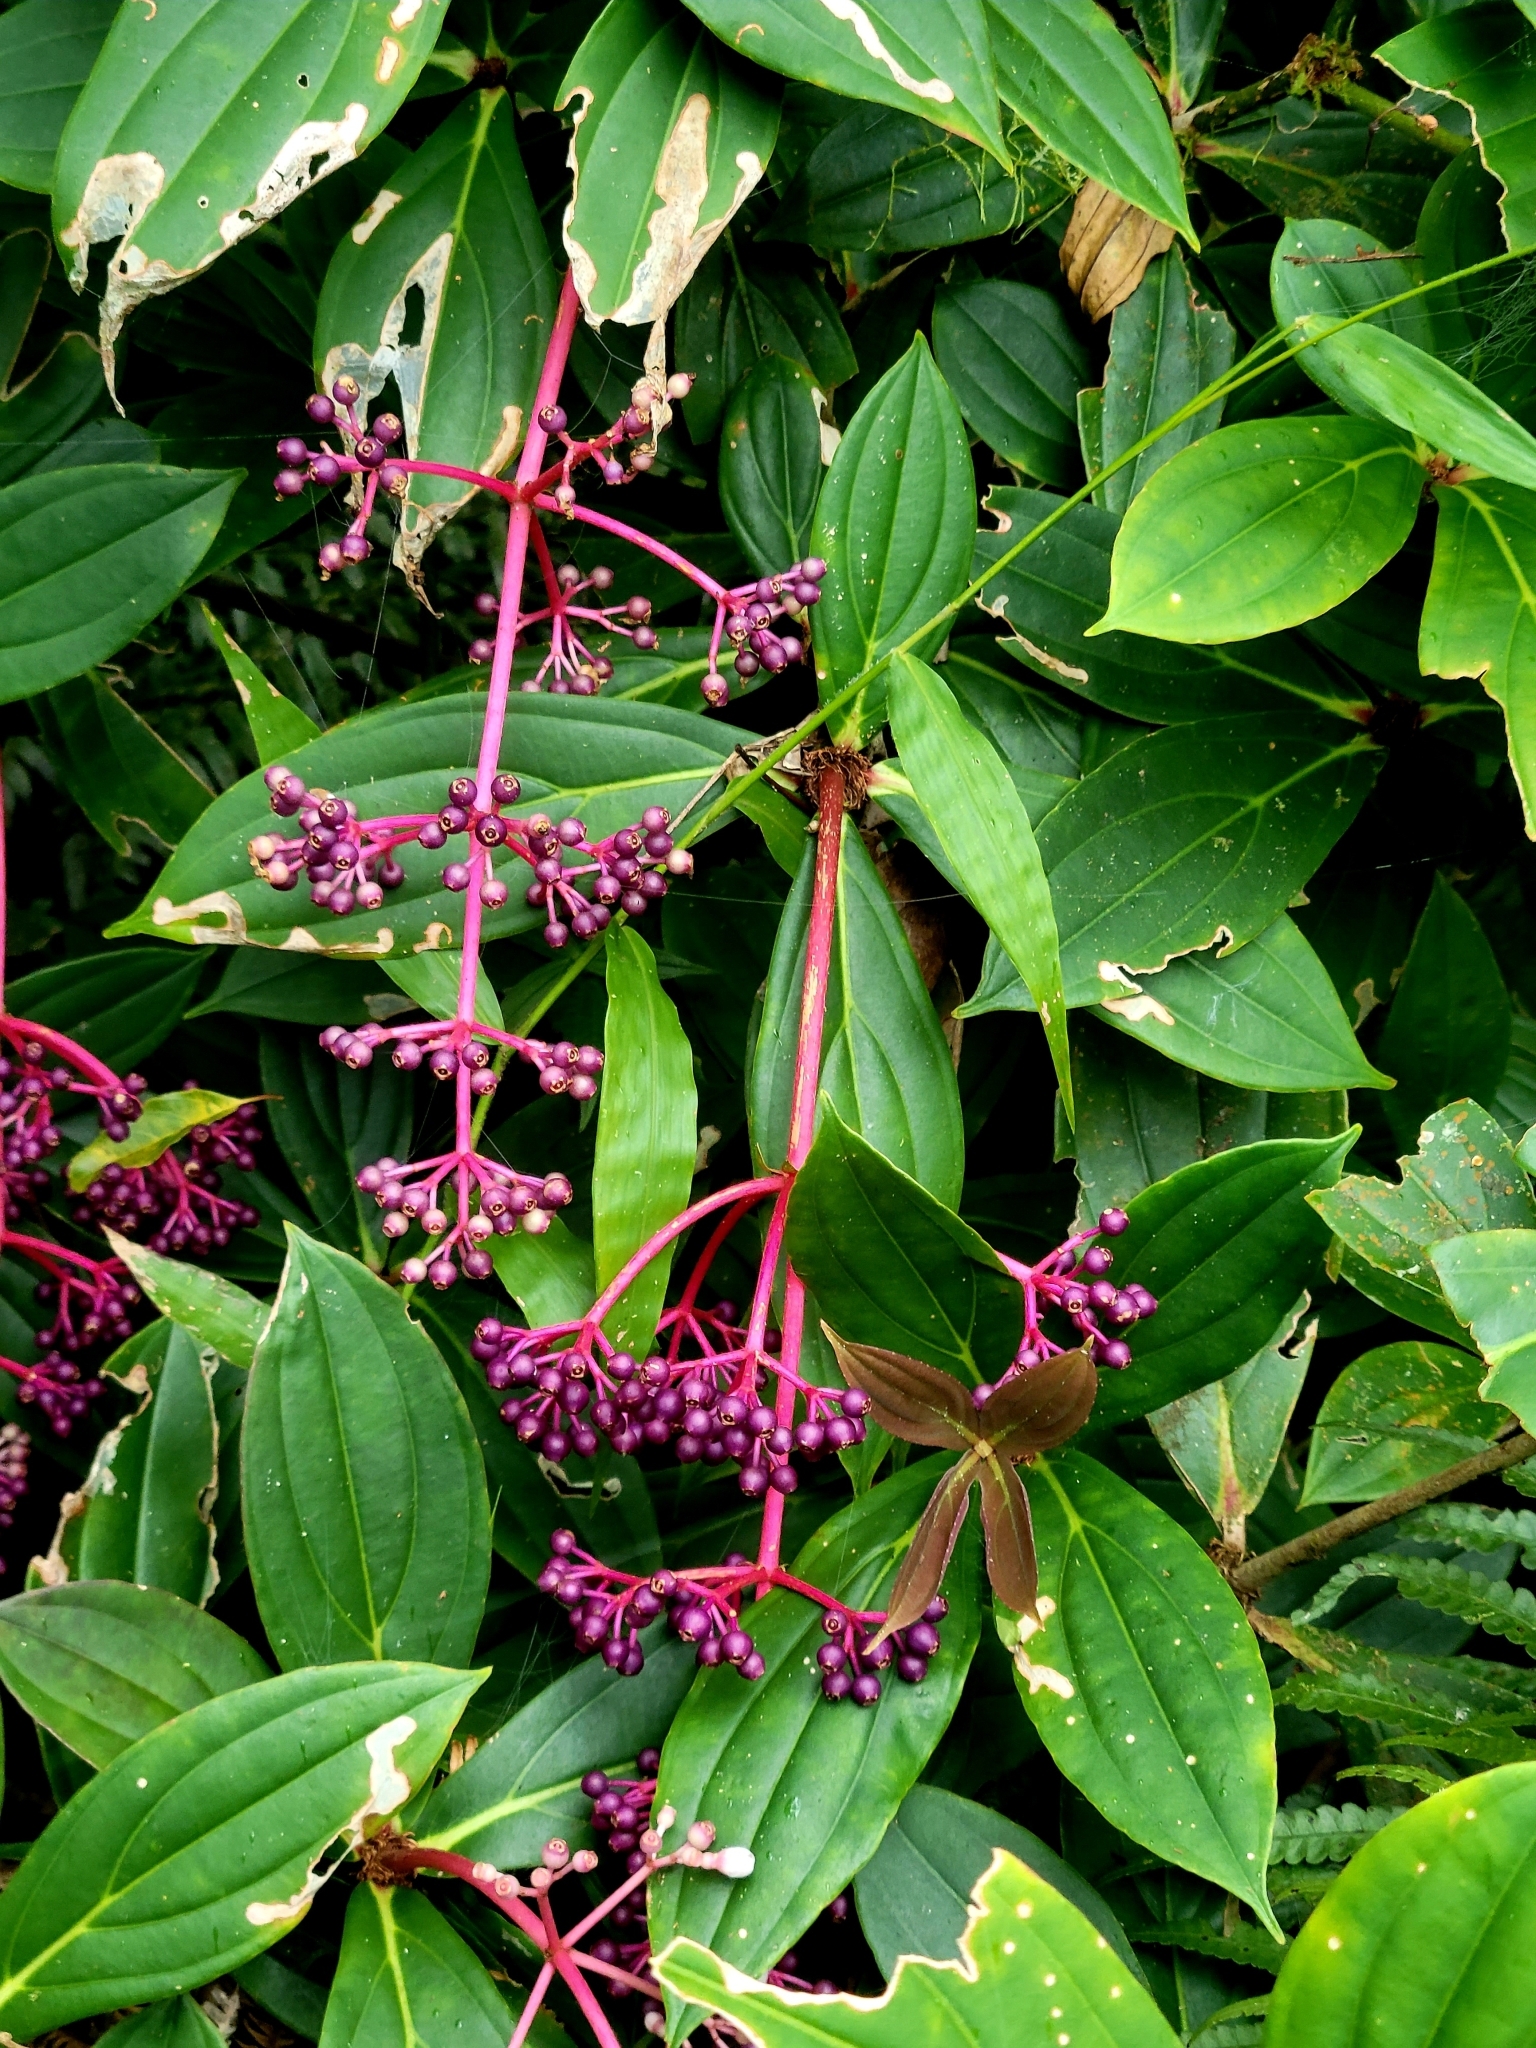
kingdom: Plantae
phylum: Tracheophyta
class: Magnoliopsida
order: Myrtales
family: Melastomataceae
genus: Medinilla
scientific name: Medinilla formosana
